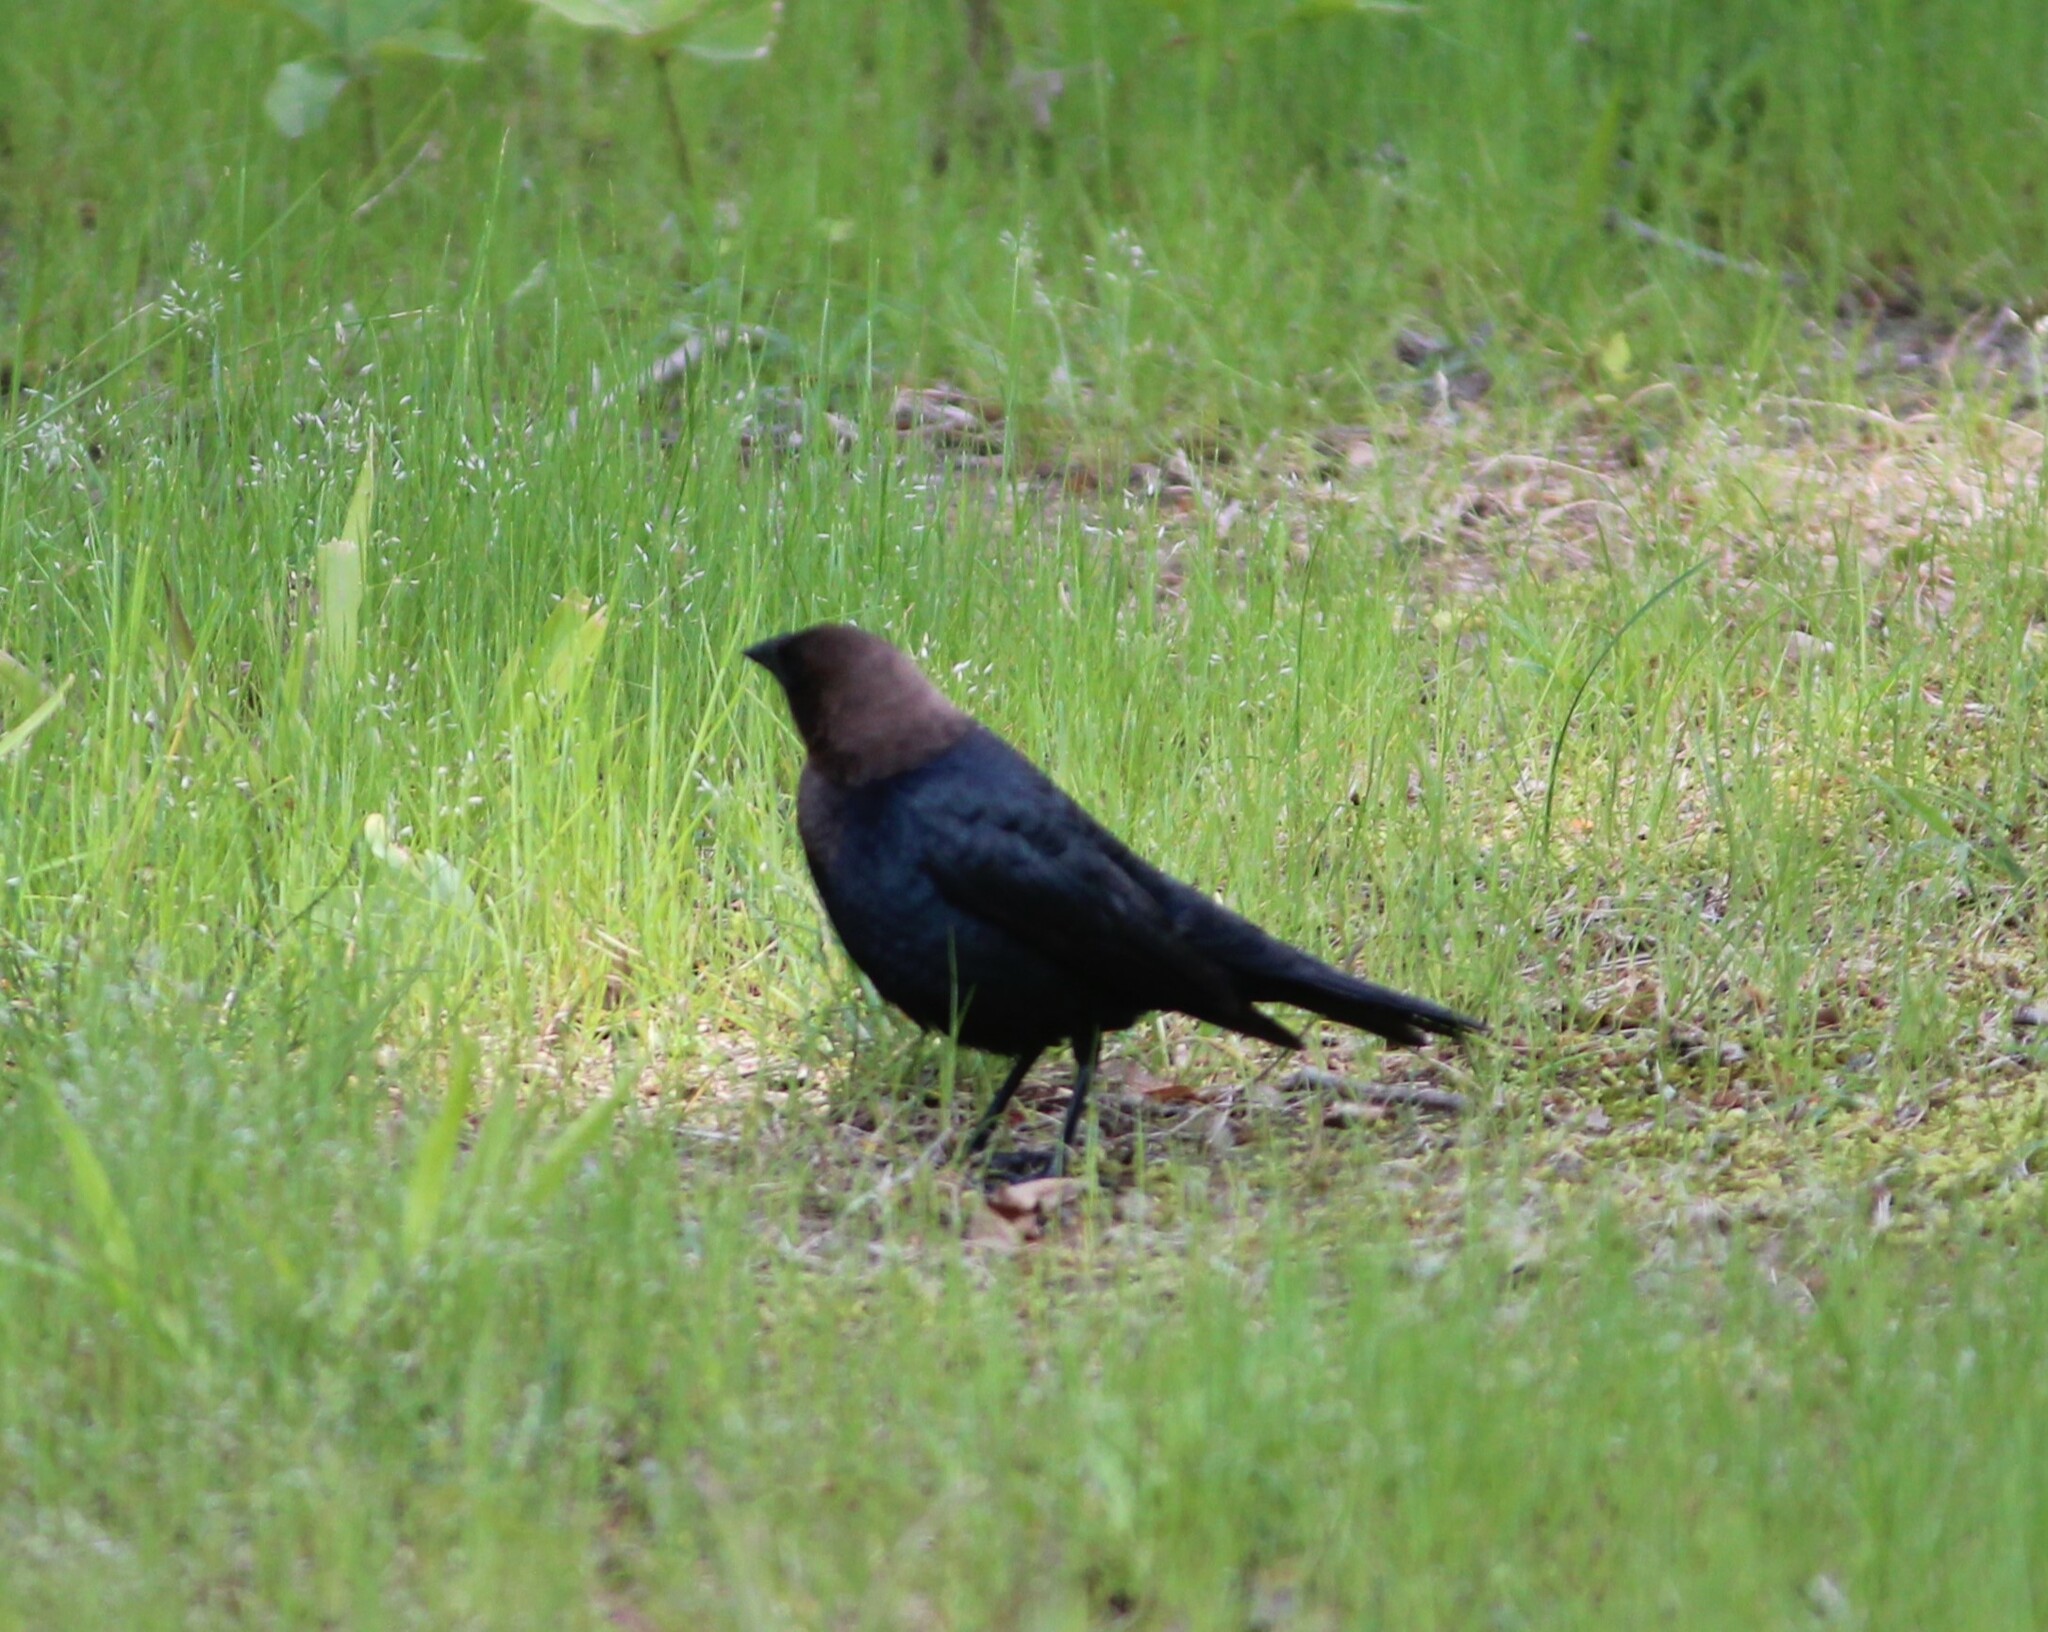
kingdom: Animalia
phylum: Chordata
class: Aves
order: Passeriformes
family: Icteridae
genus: Molothrus
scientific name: Molothrus ater
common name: Brown-headed cowbird
